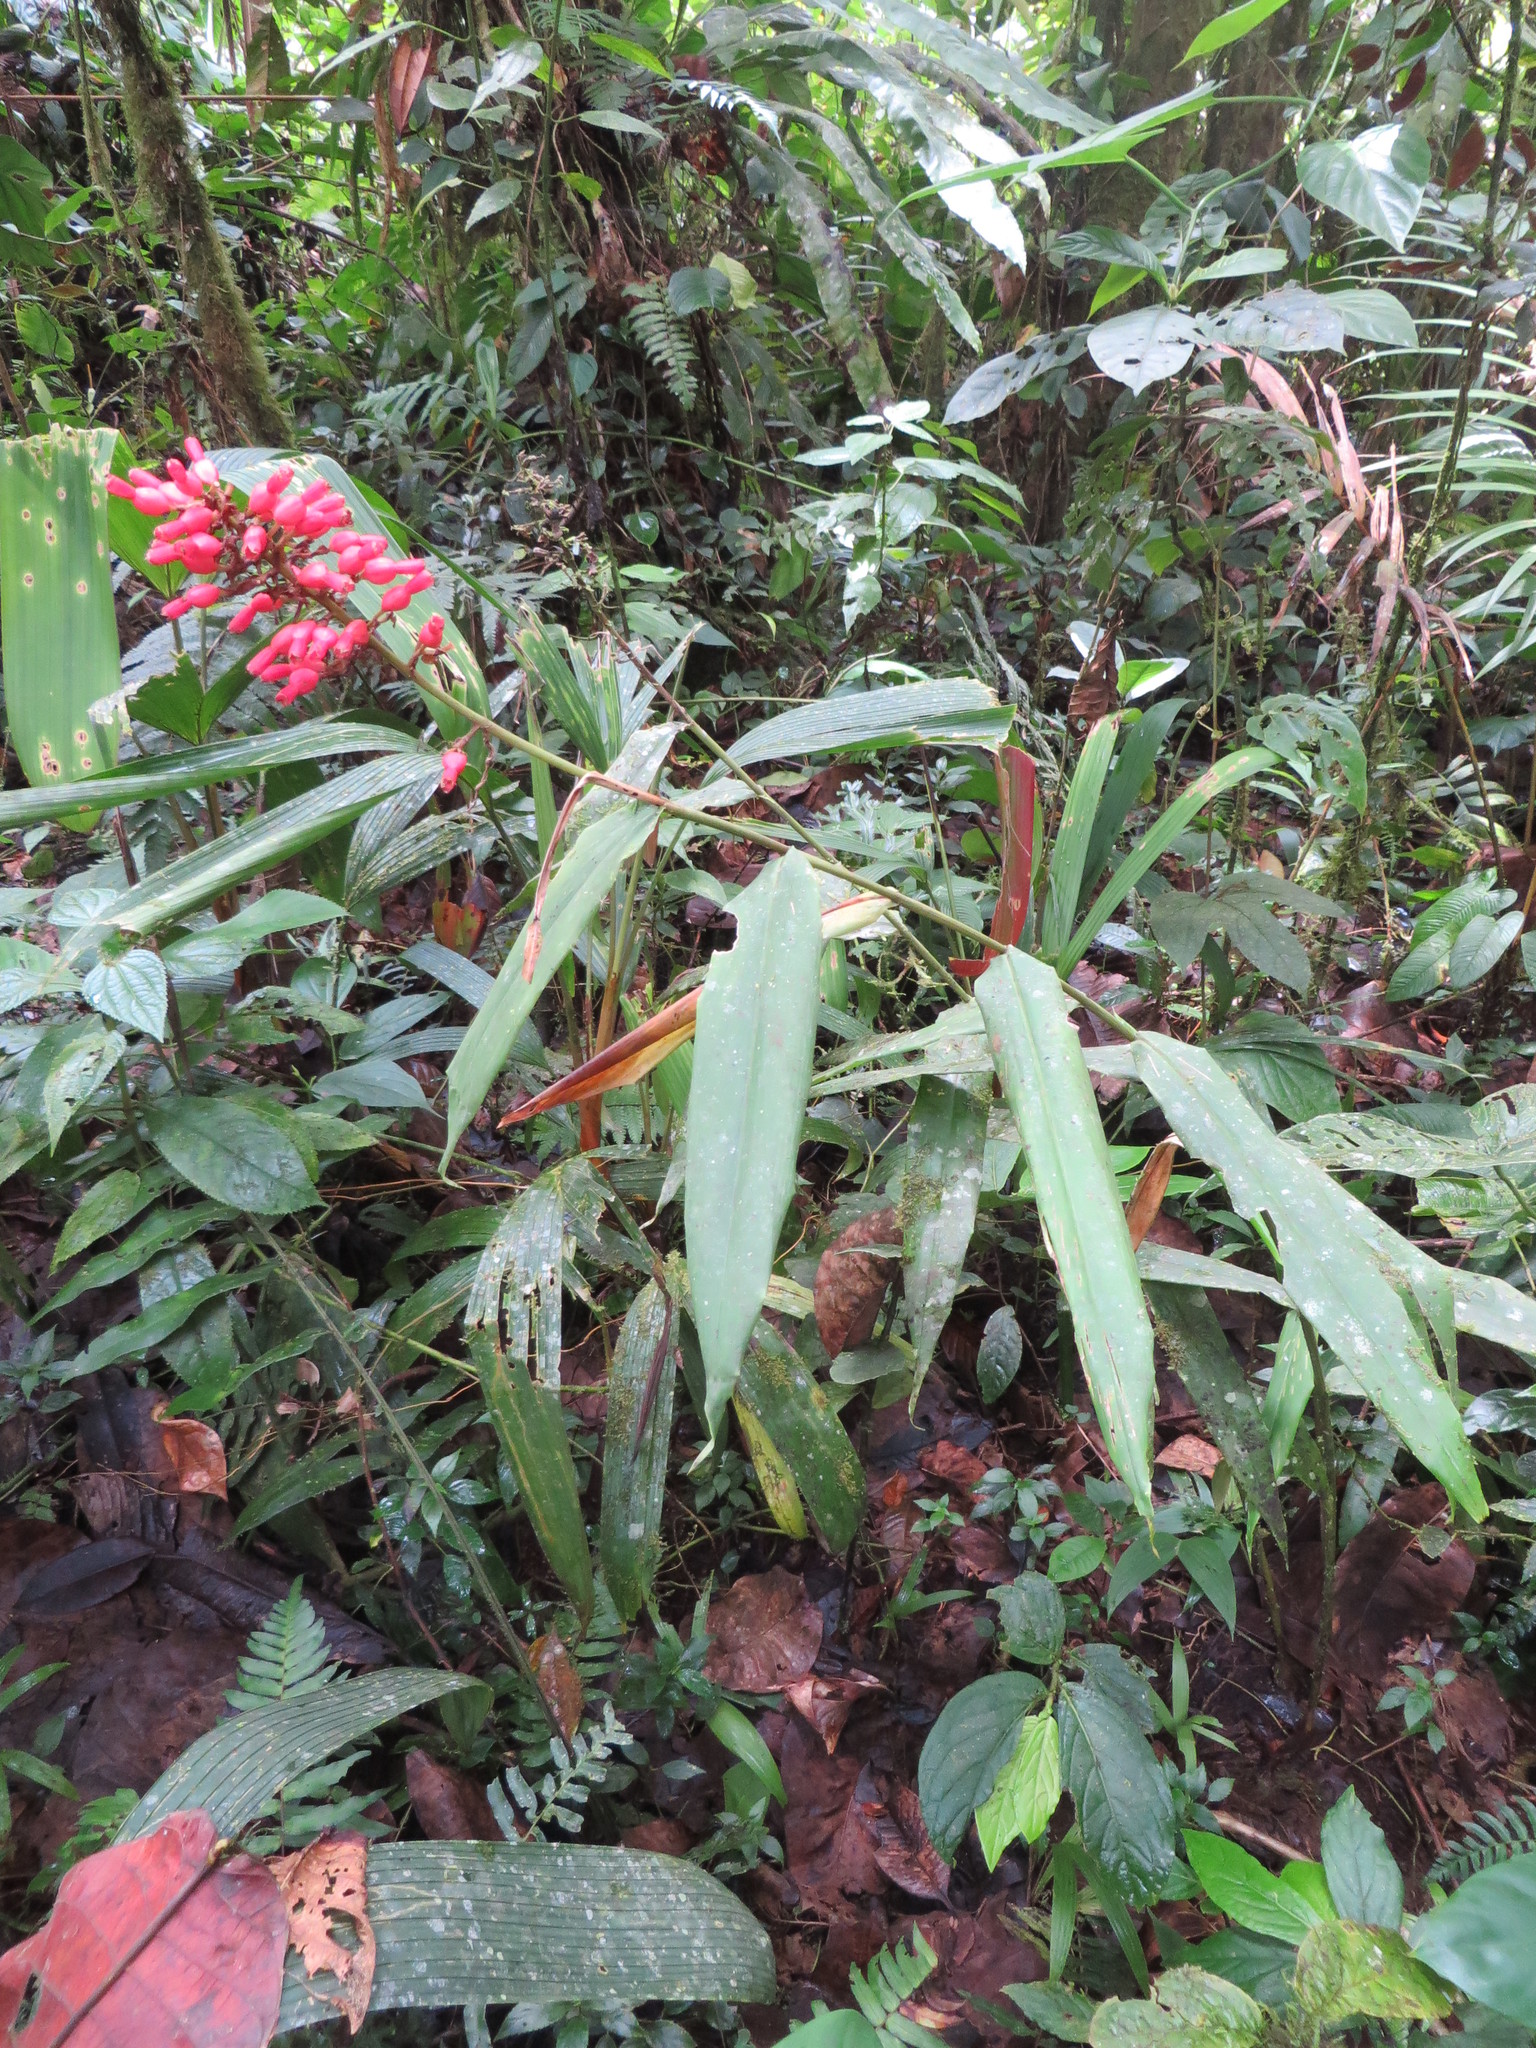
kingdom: Plantae
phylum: Tracheophyta
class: Liliopsida
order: Zingiberales
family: Zingiberaceae
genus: Renealmia
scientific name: Renealmia sessilifolia
